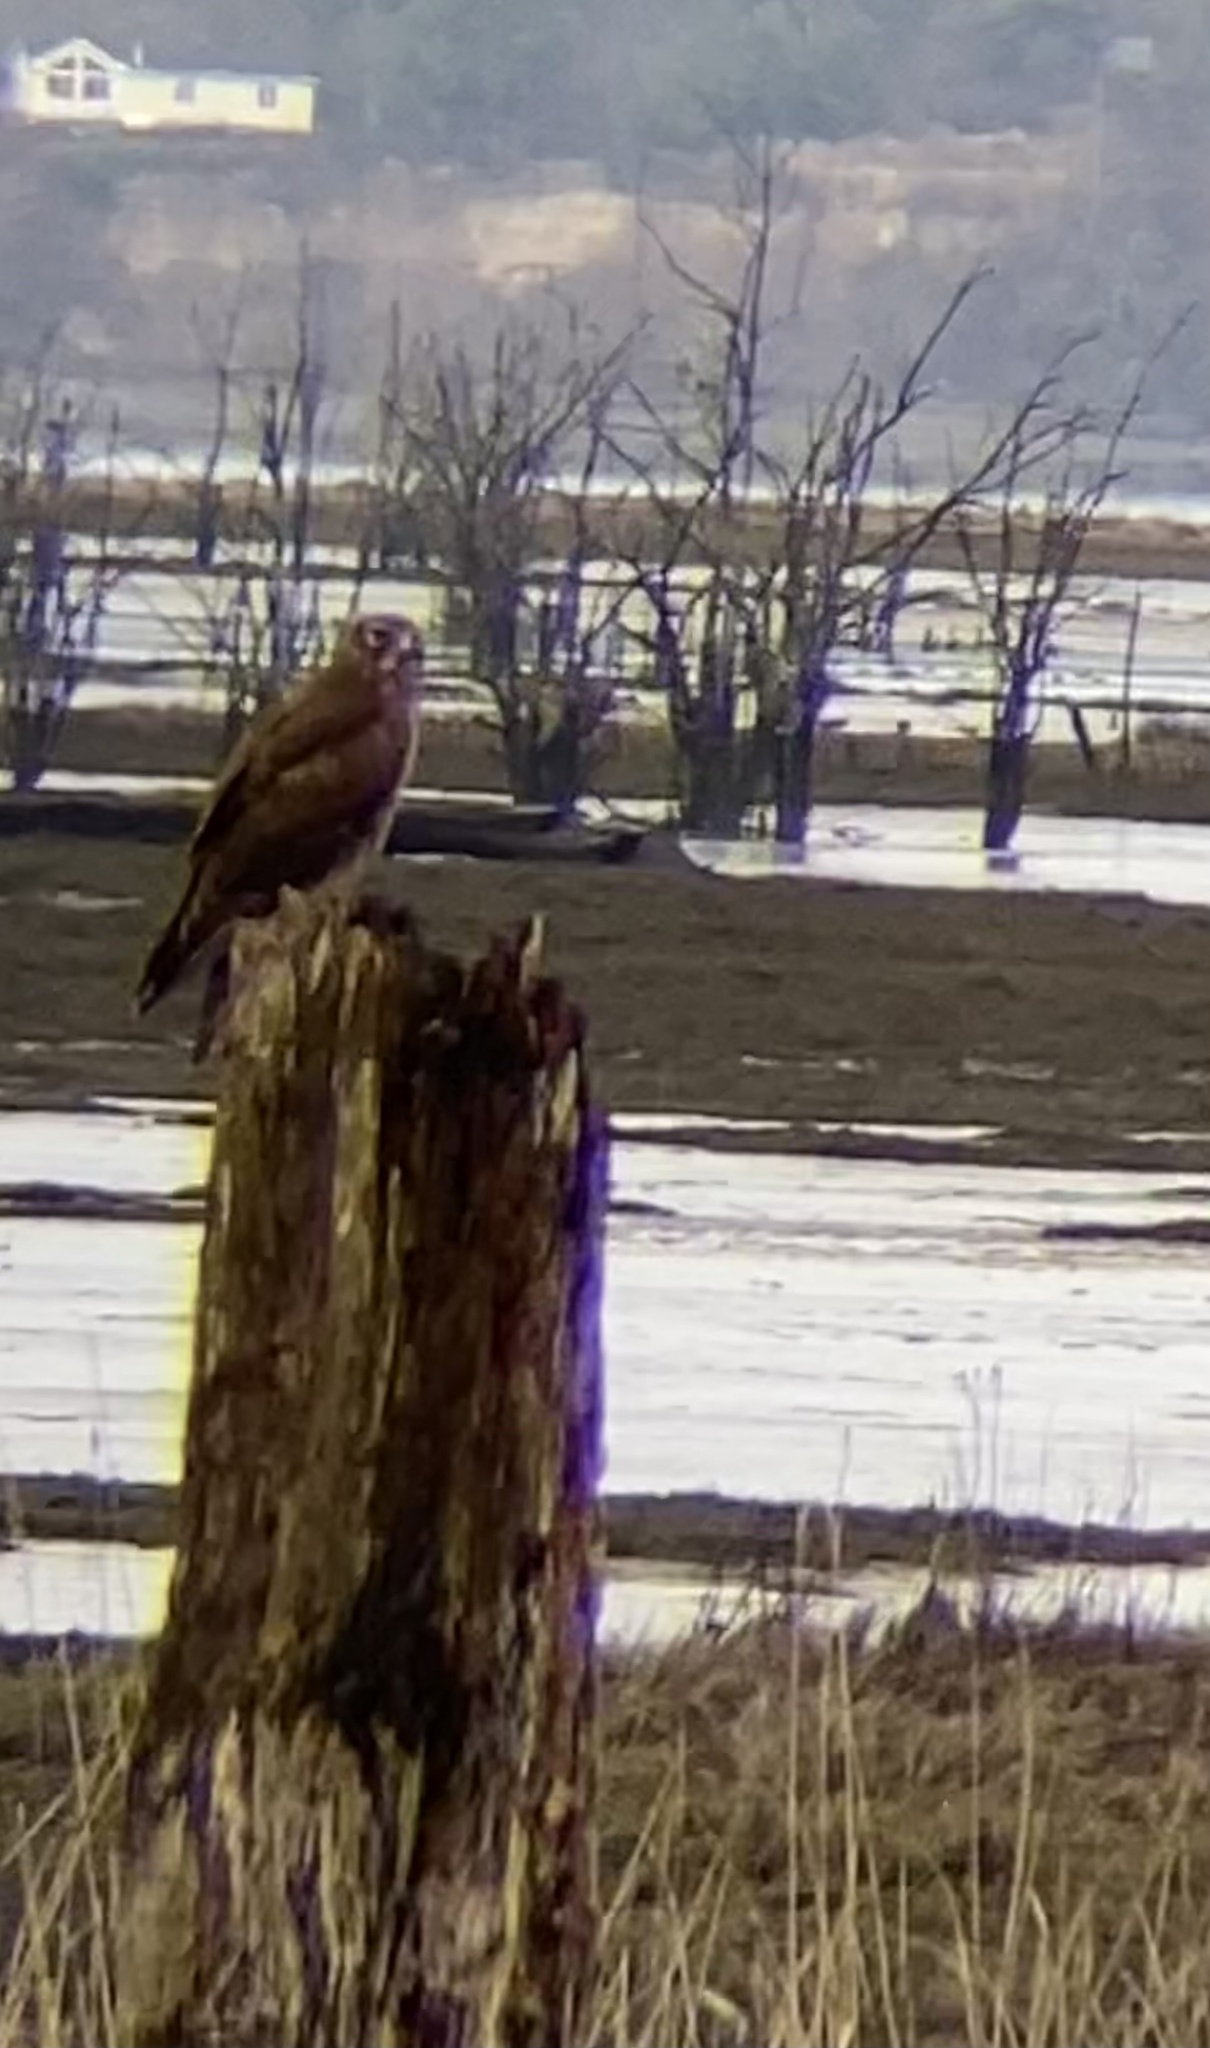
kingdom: Animalia
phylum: Chordata
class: Aves
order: Accipitriformes
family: Accipitridae
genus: Circus
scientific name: Circus cyaneus
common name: Hen harrier
